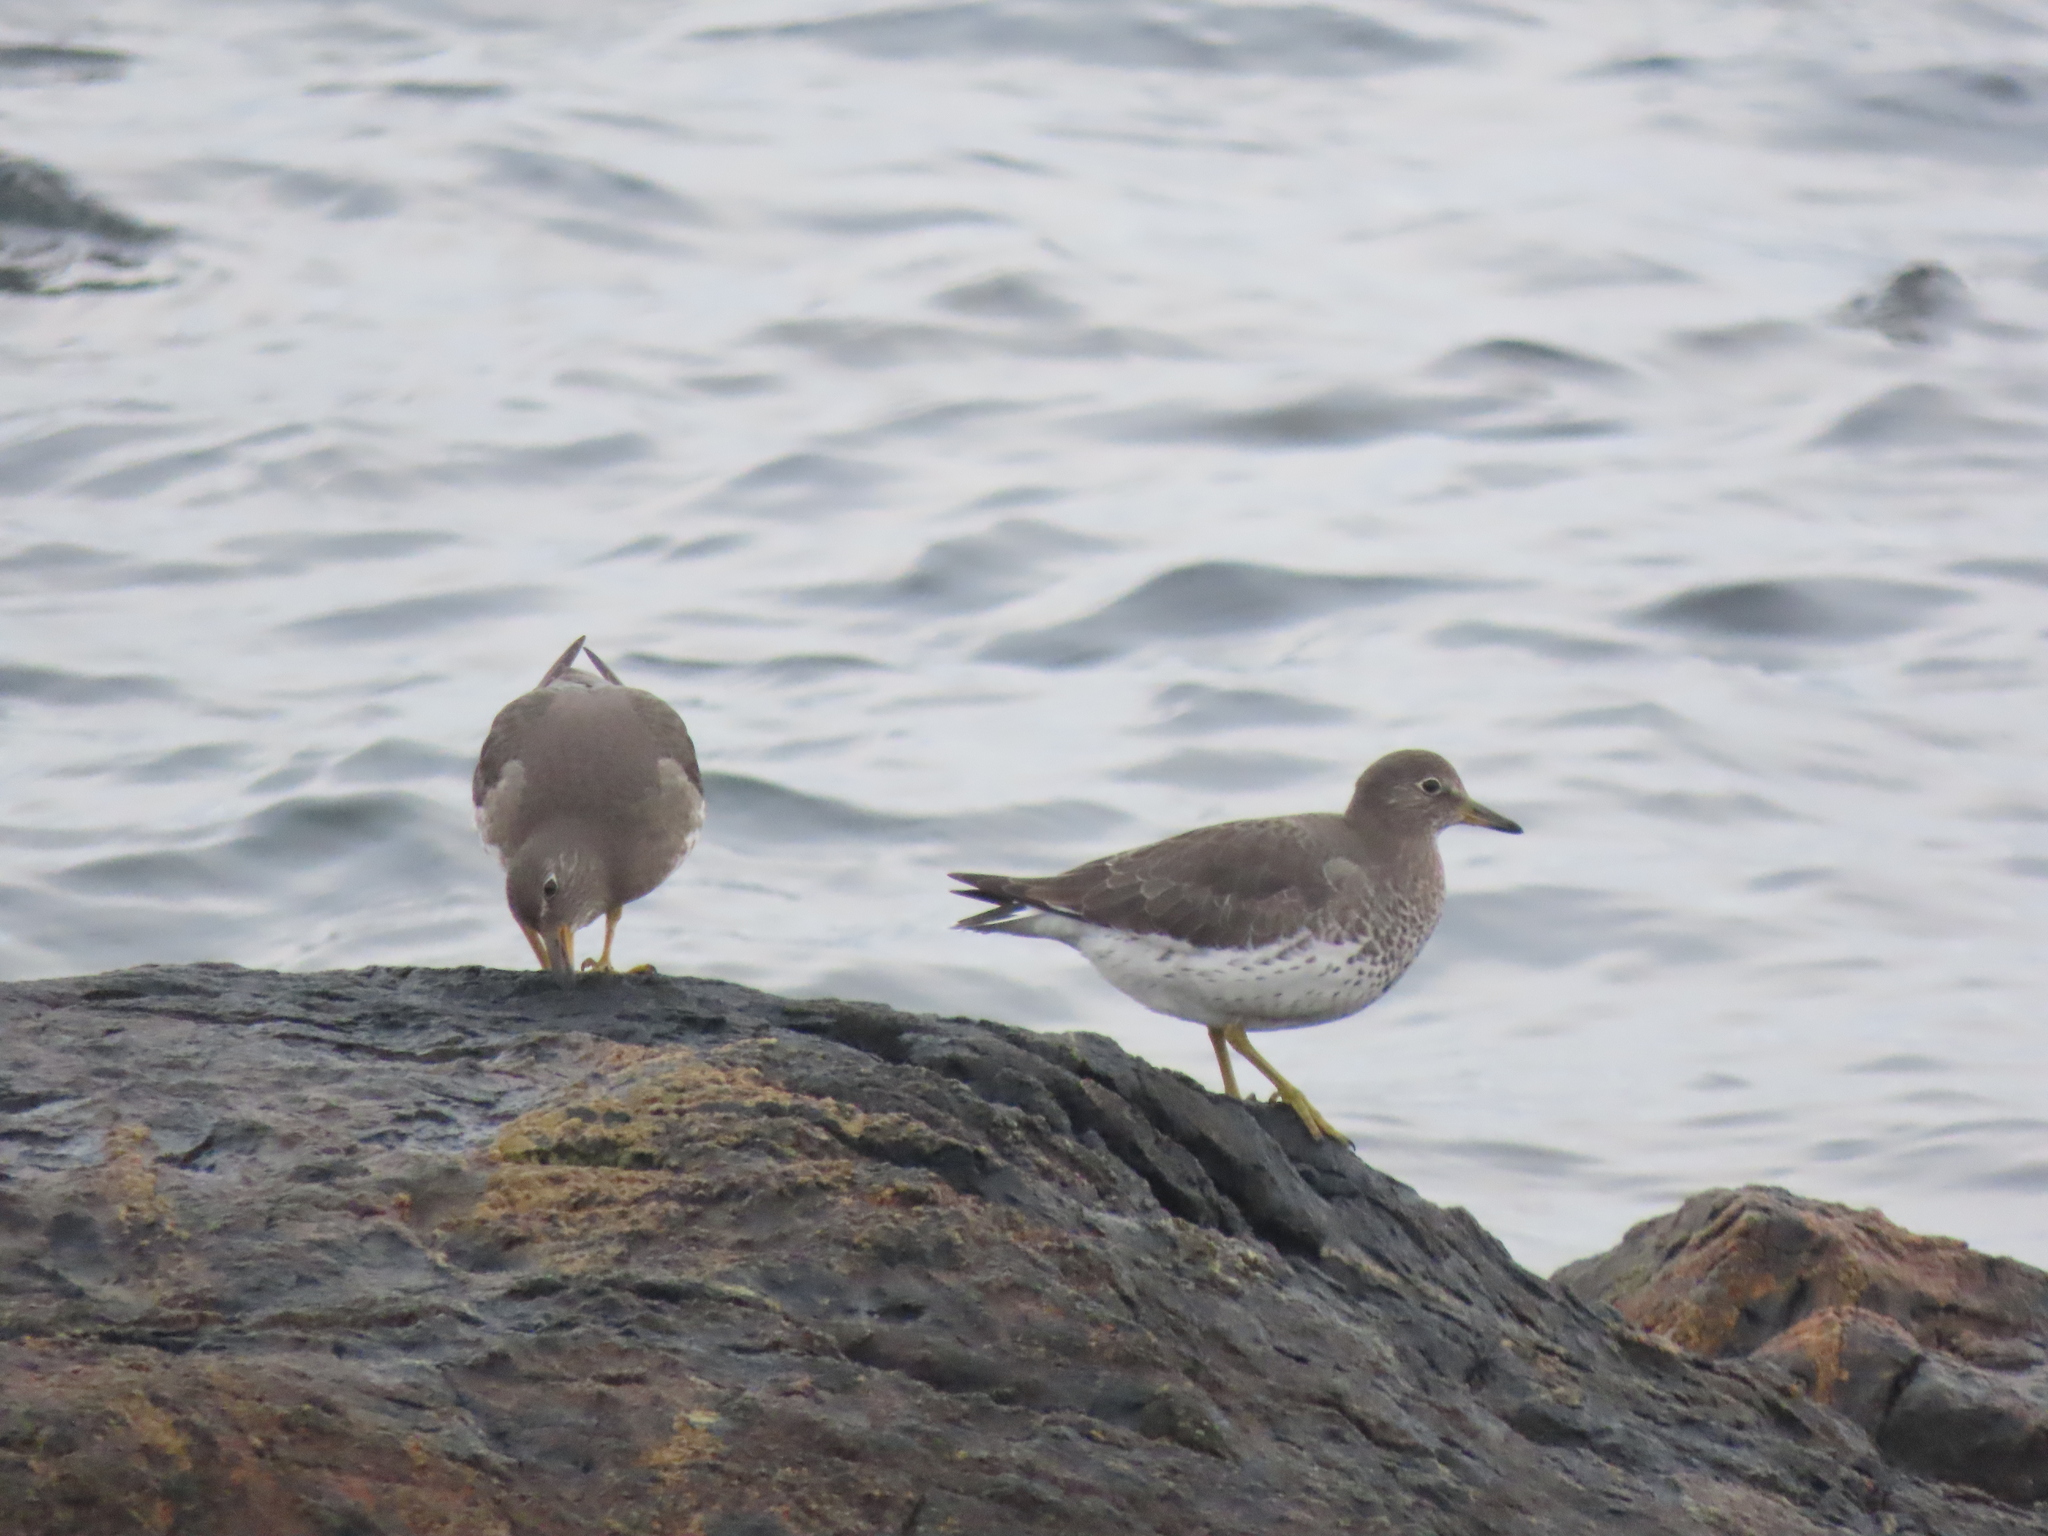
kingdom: Animalia
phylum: Chordata
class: Aves
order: Charadriiformes
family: Scolopacidae
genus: Calidris
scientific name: Calidris virgata
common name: Surfbird
